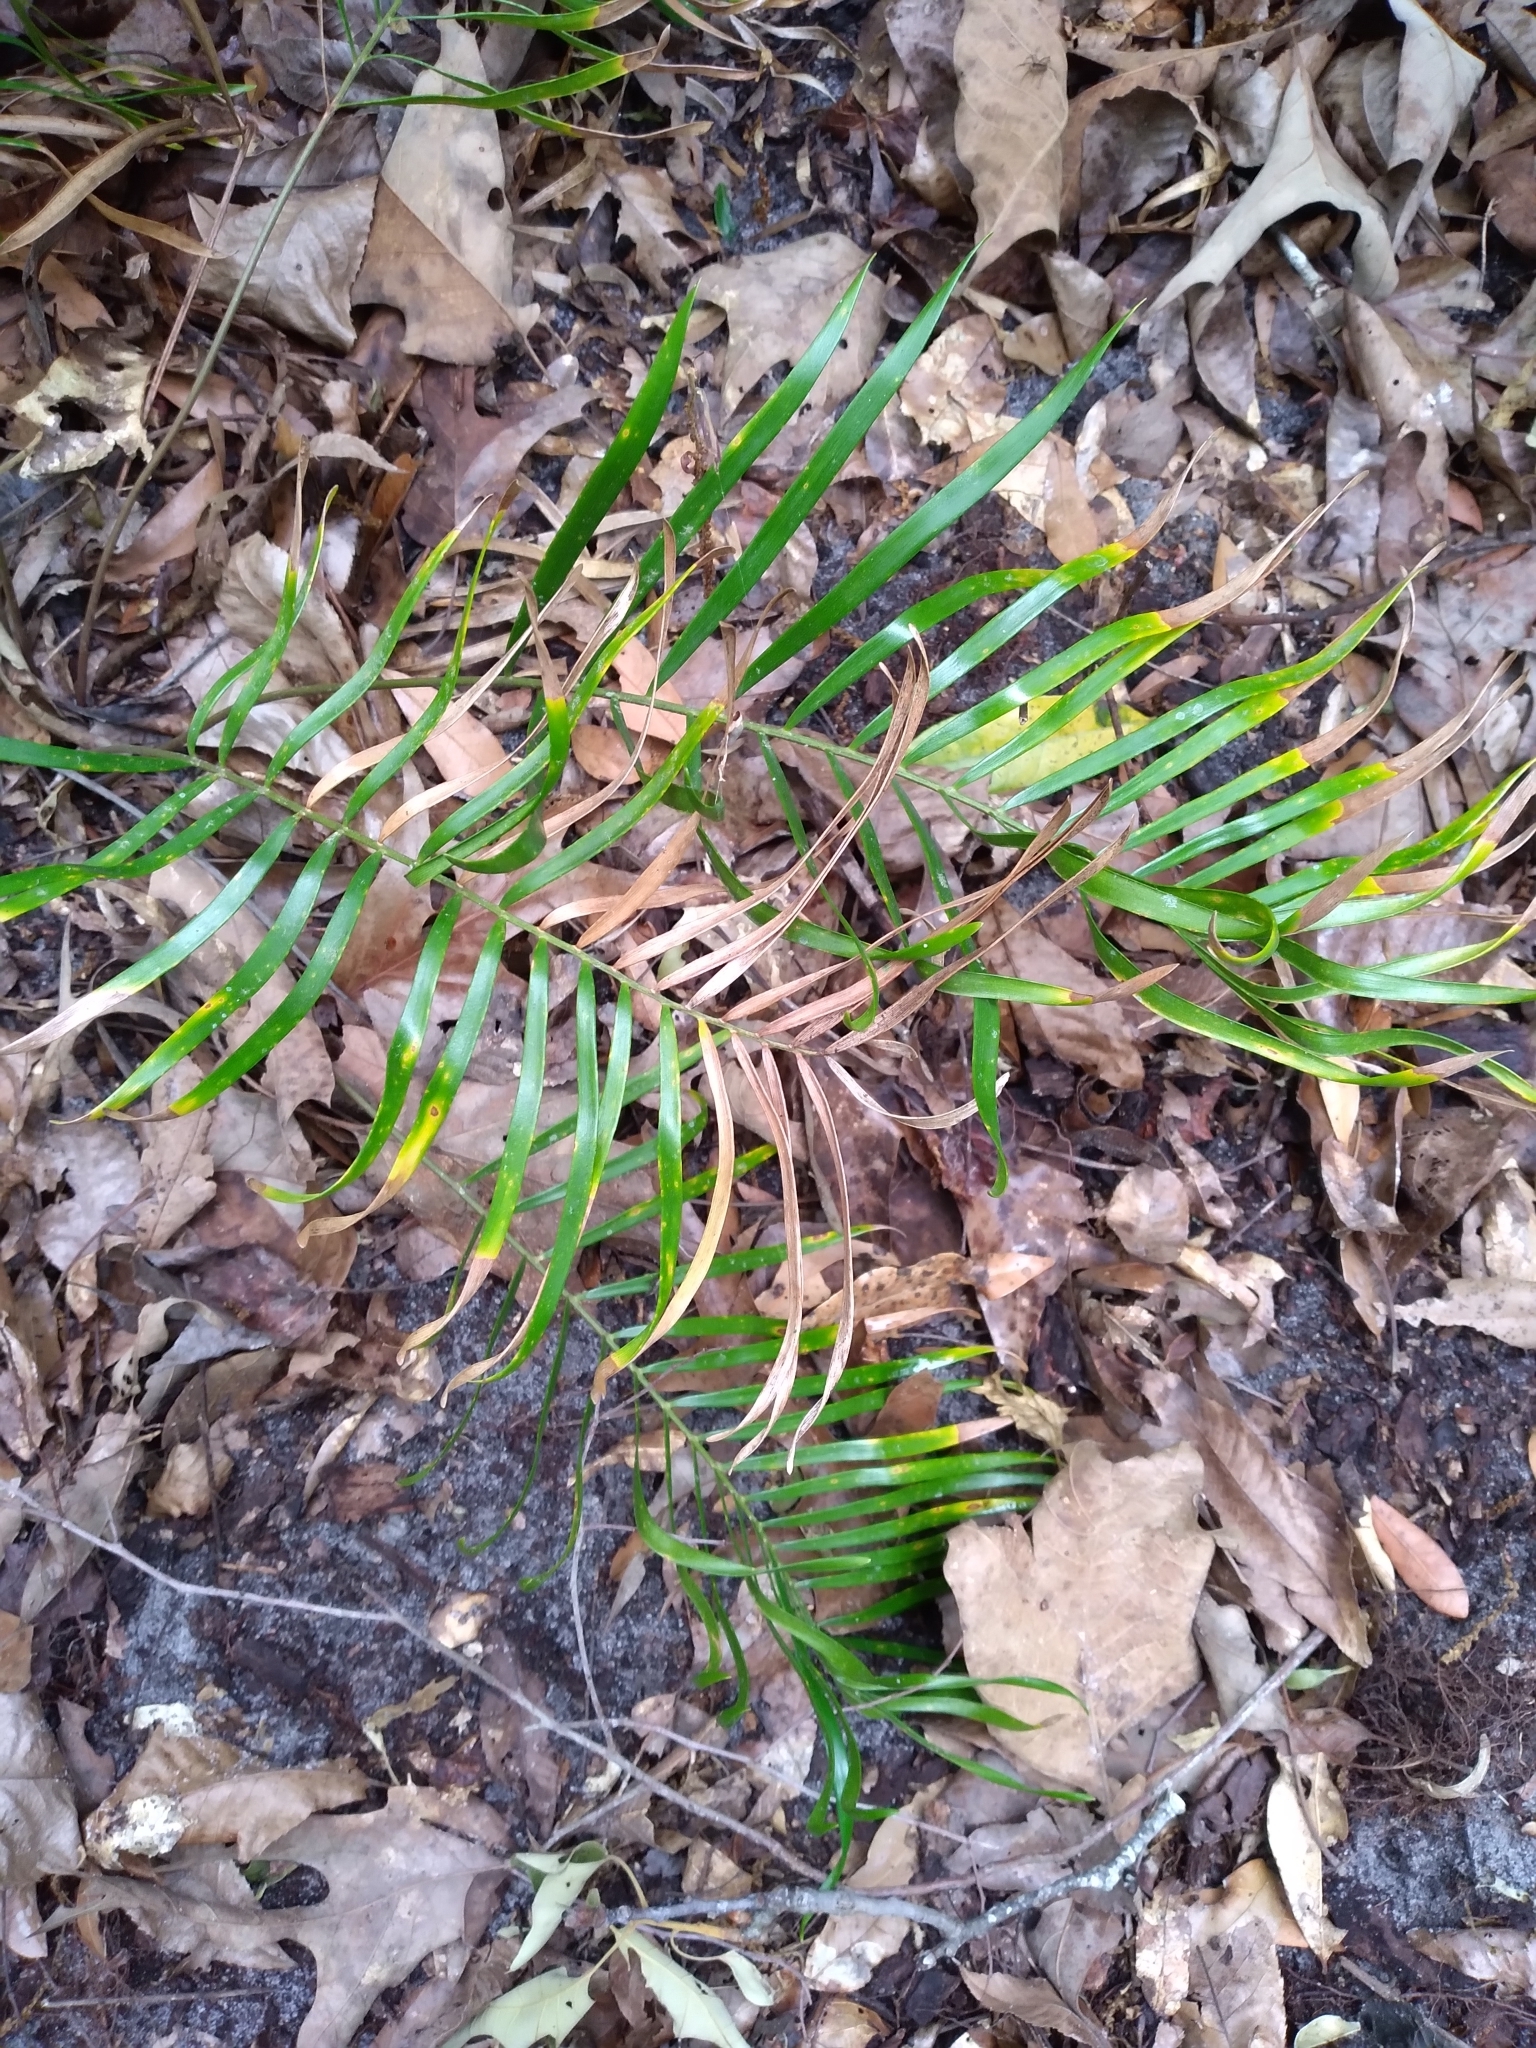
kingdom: Plantae
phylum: Tracheophyta
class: Cycadopsida
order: Cycadales
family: Zamiaceae
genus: Zamia
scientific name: Zamia integrifolia
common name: Florida arrowroot
